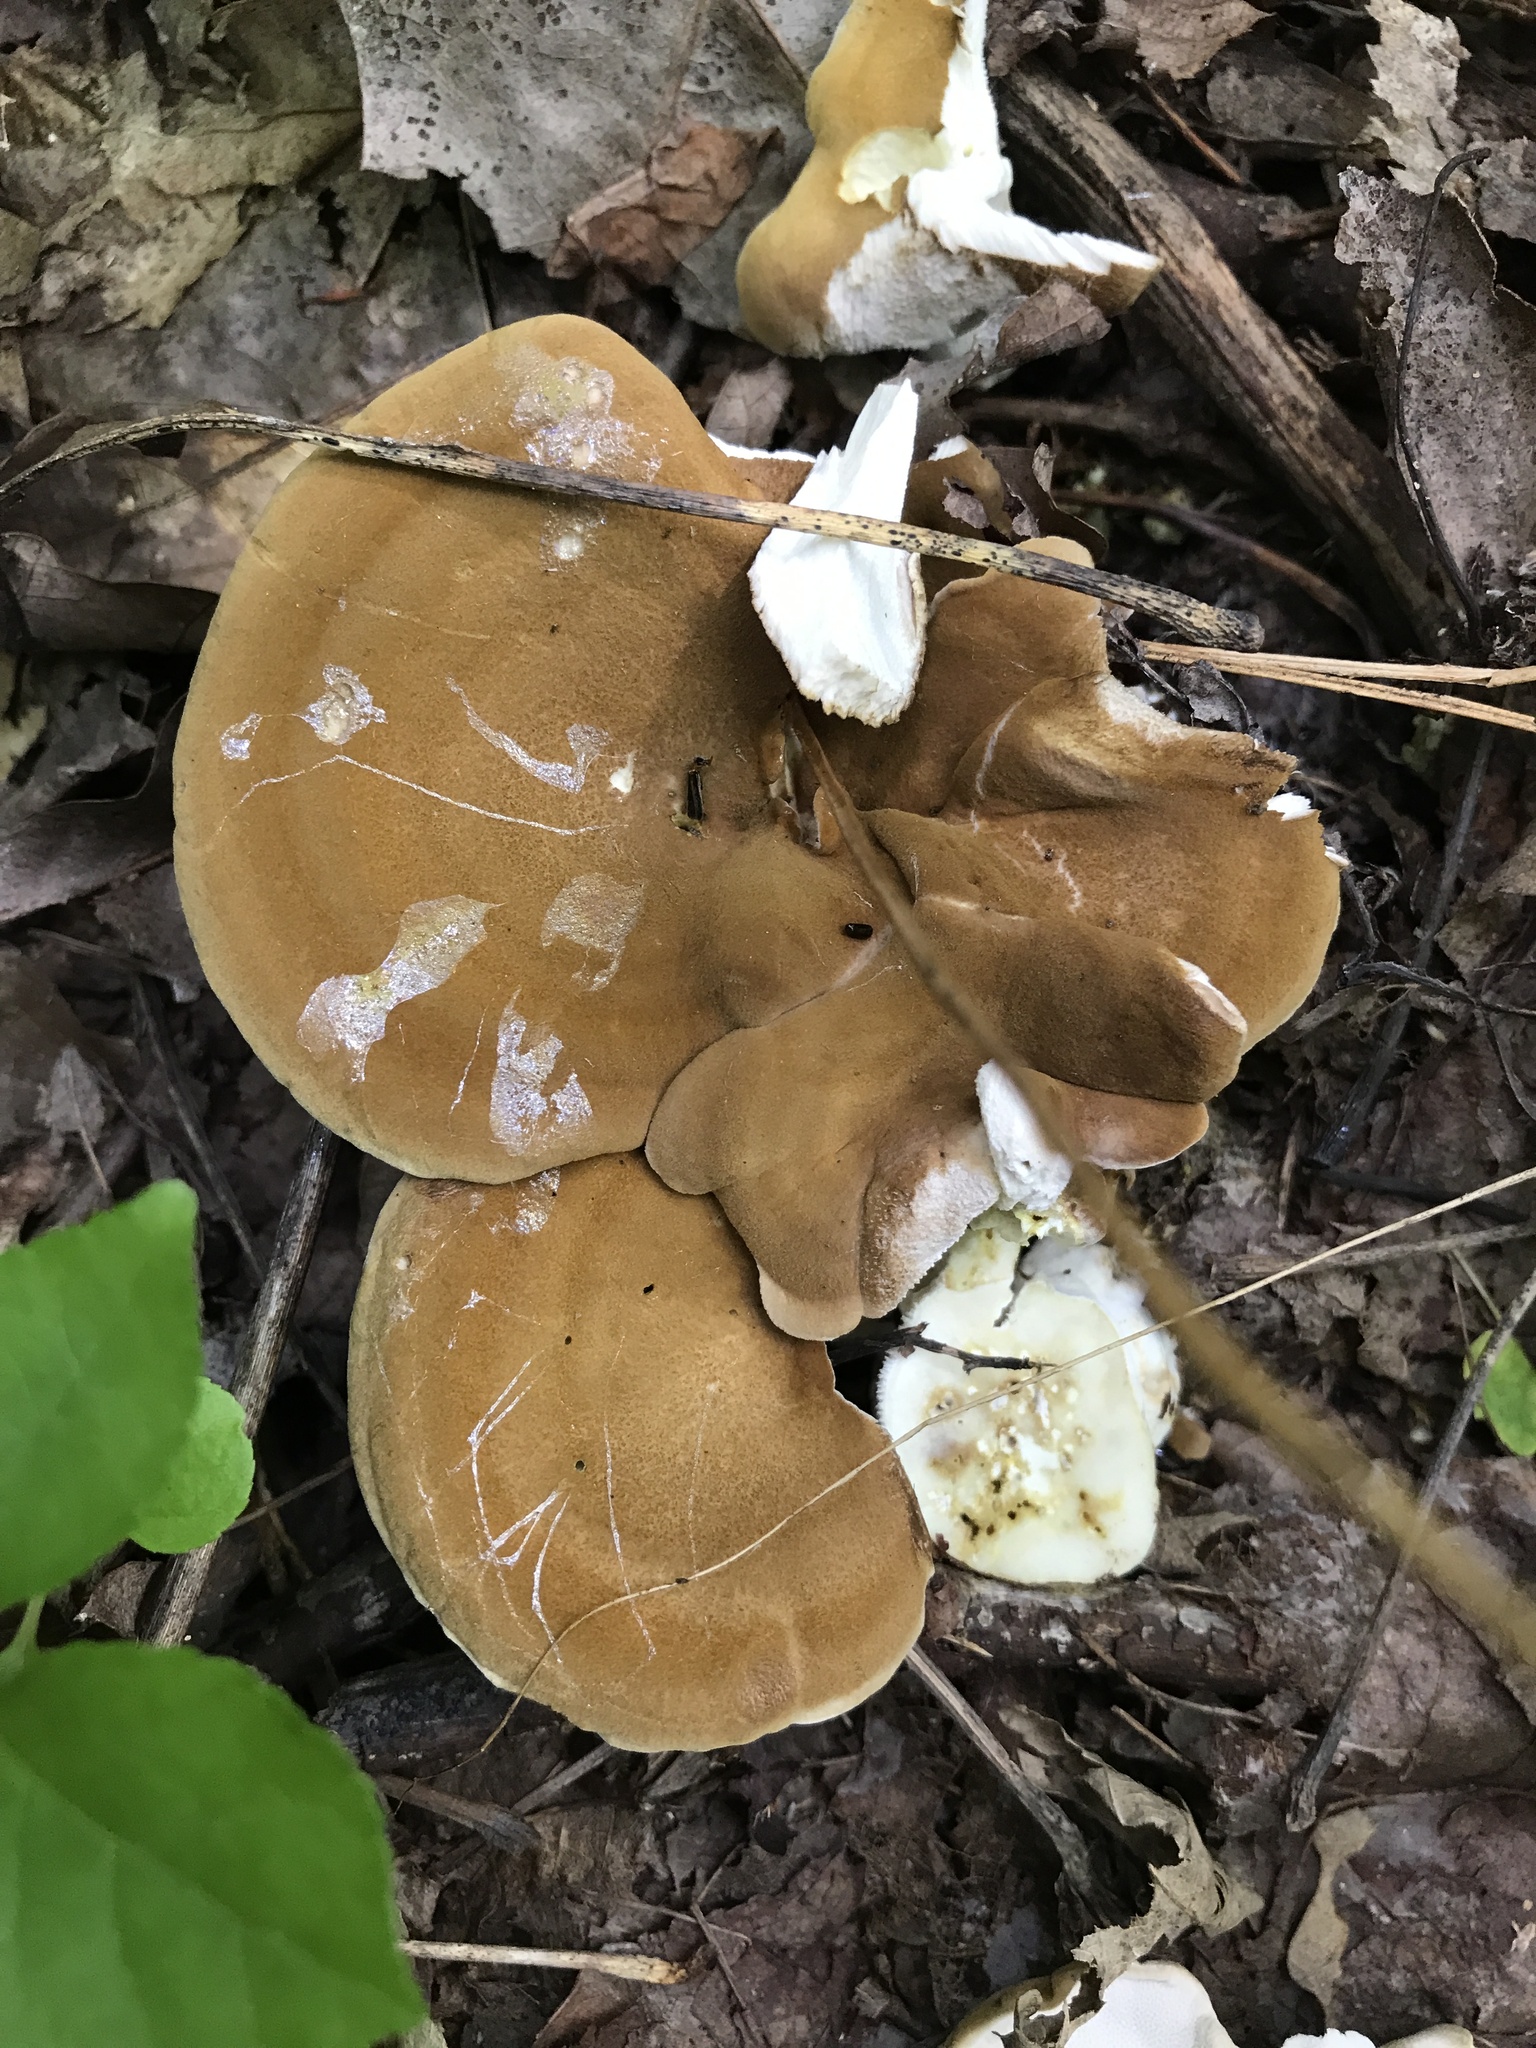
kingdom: Fungi
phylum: Basidiomycota
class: Agaricomycetes
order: Russulales
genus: Laeticutis
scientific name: Laeticutis cristata
